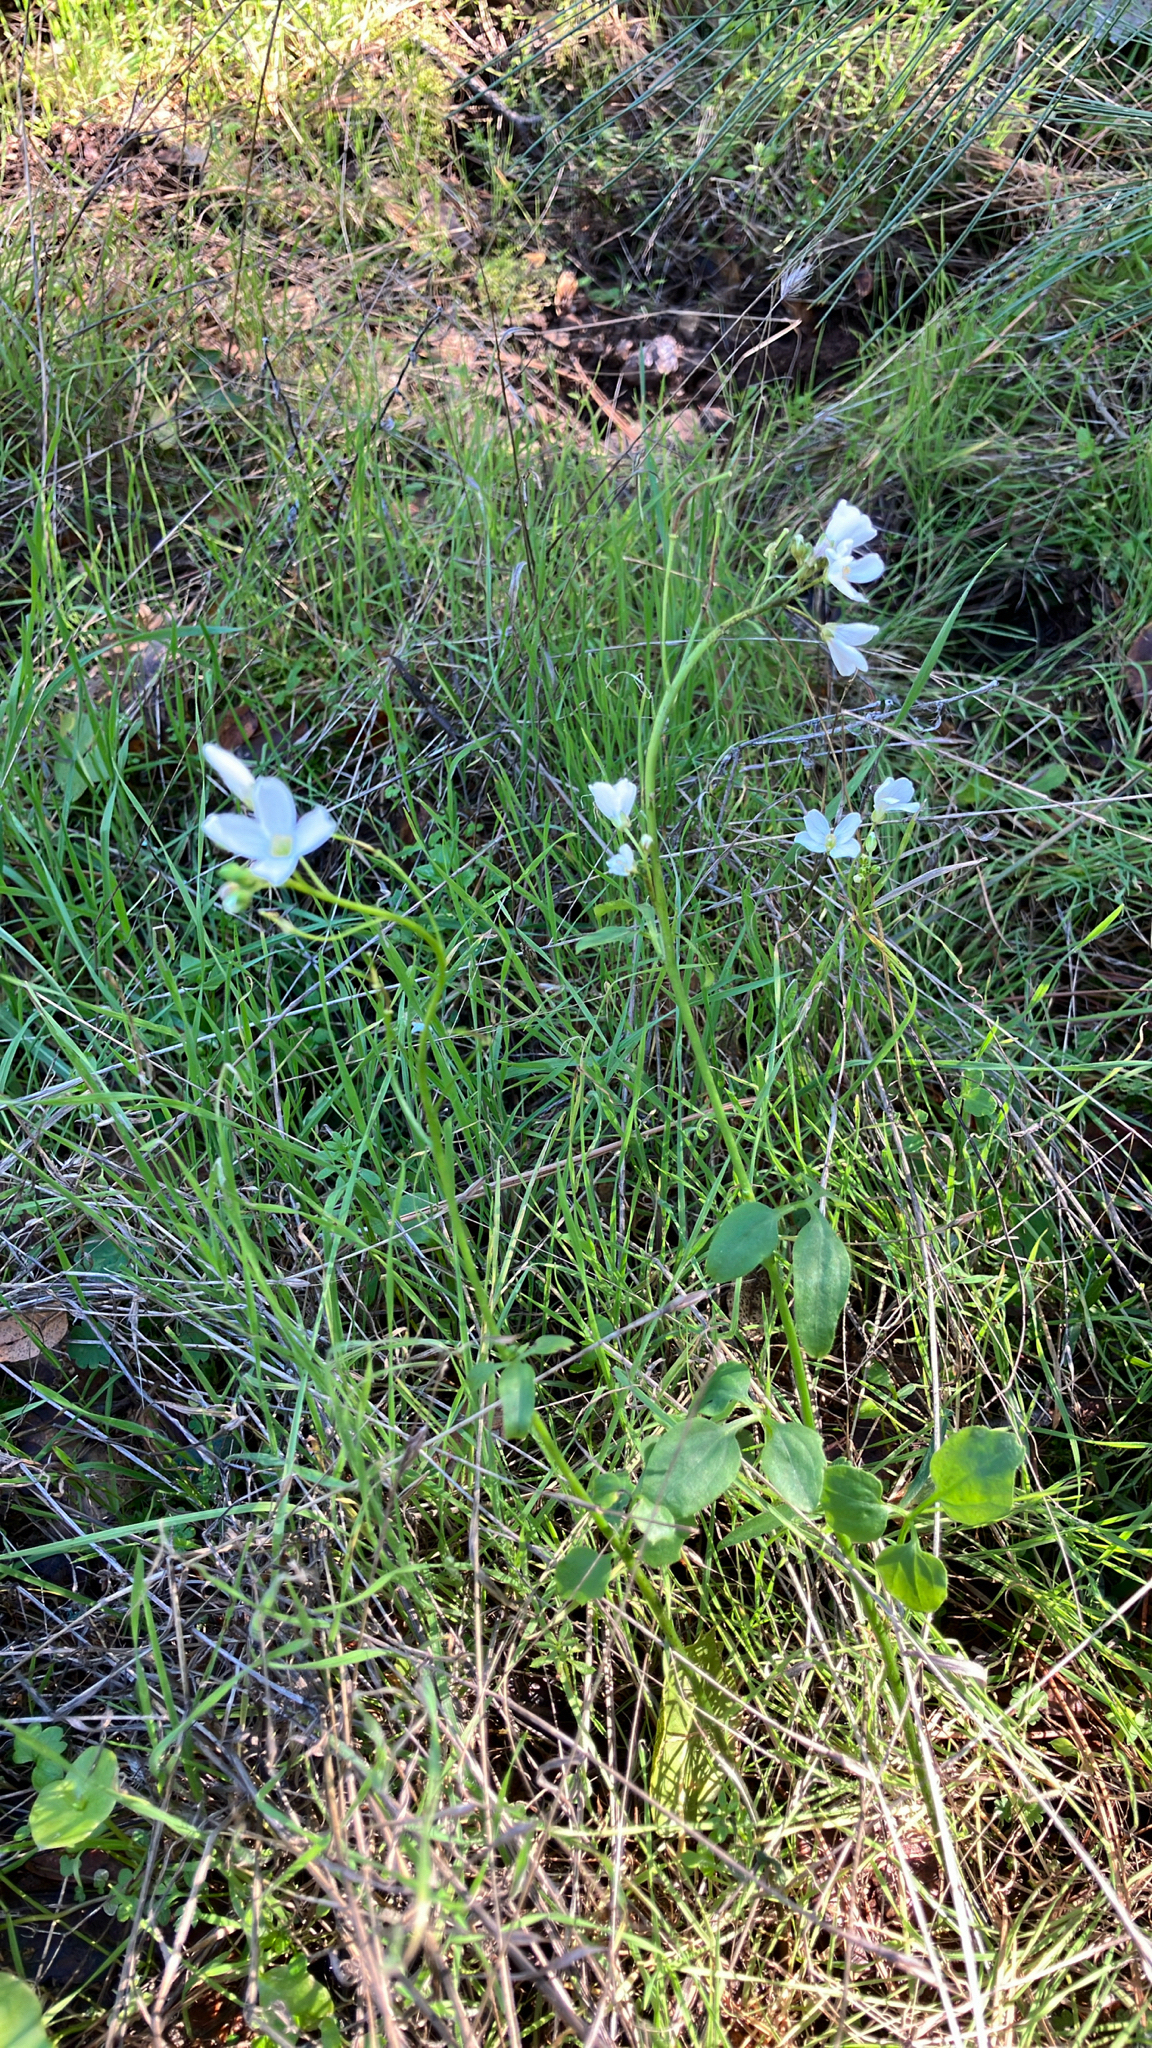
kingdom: Plantae
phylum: Tracheophyta
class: Magnoliopsida
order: Brassicales
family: Brassicaceae
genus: Cardamine
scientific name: Cardamine californica
